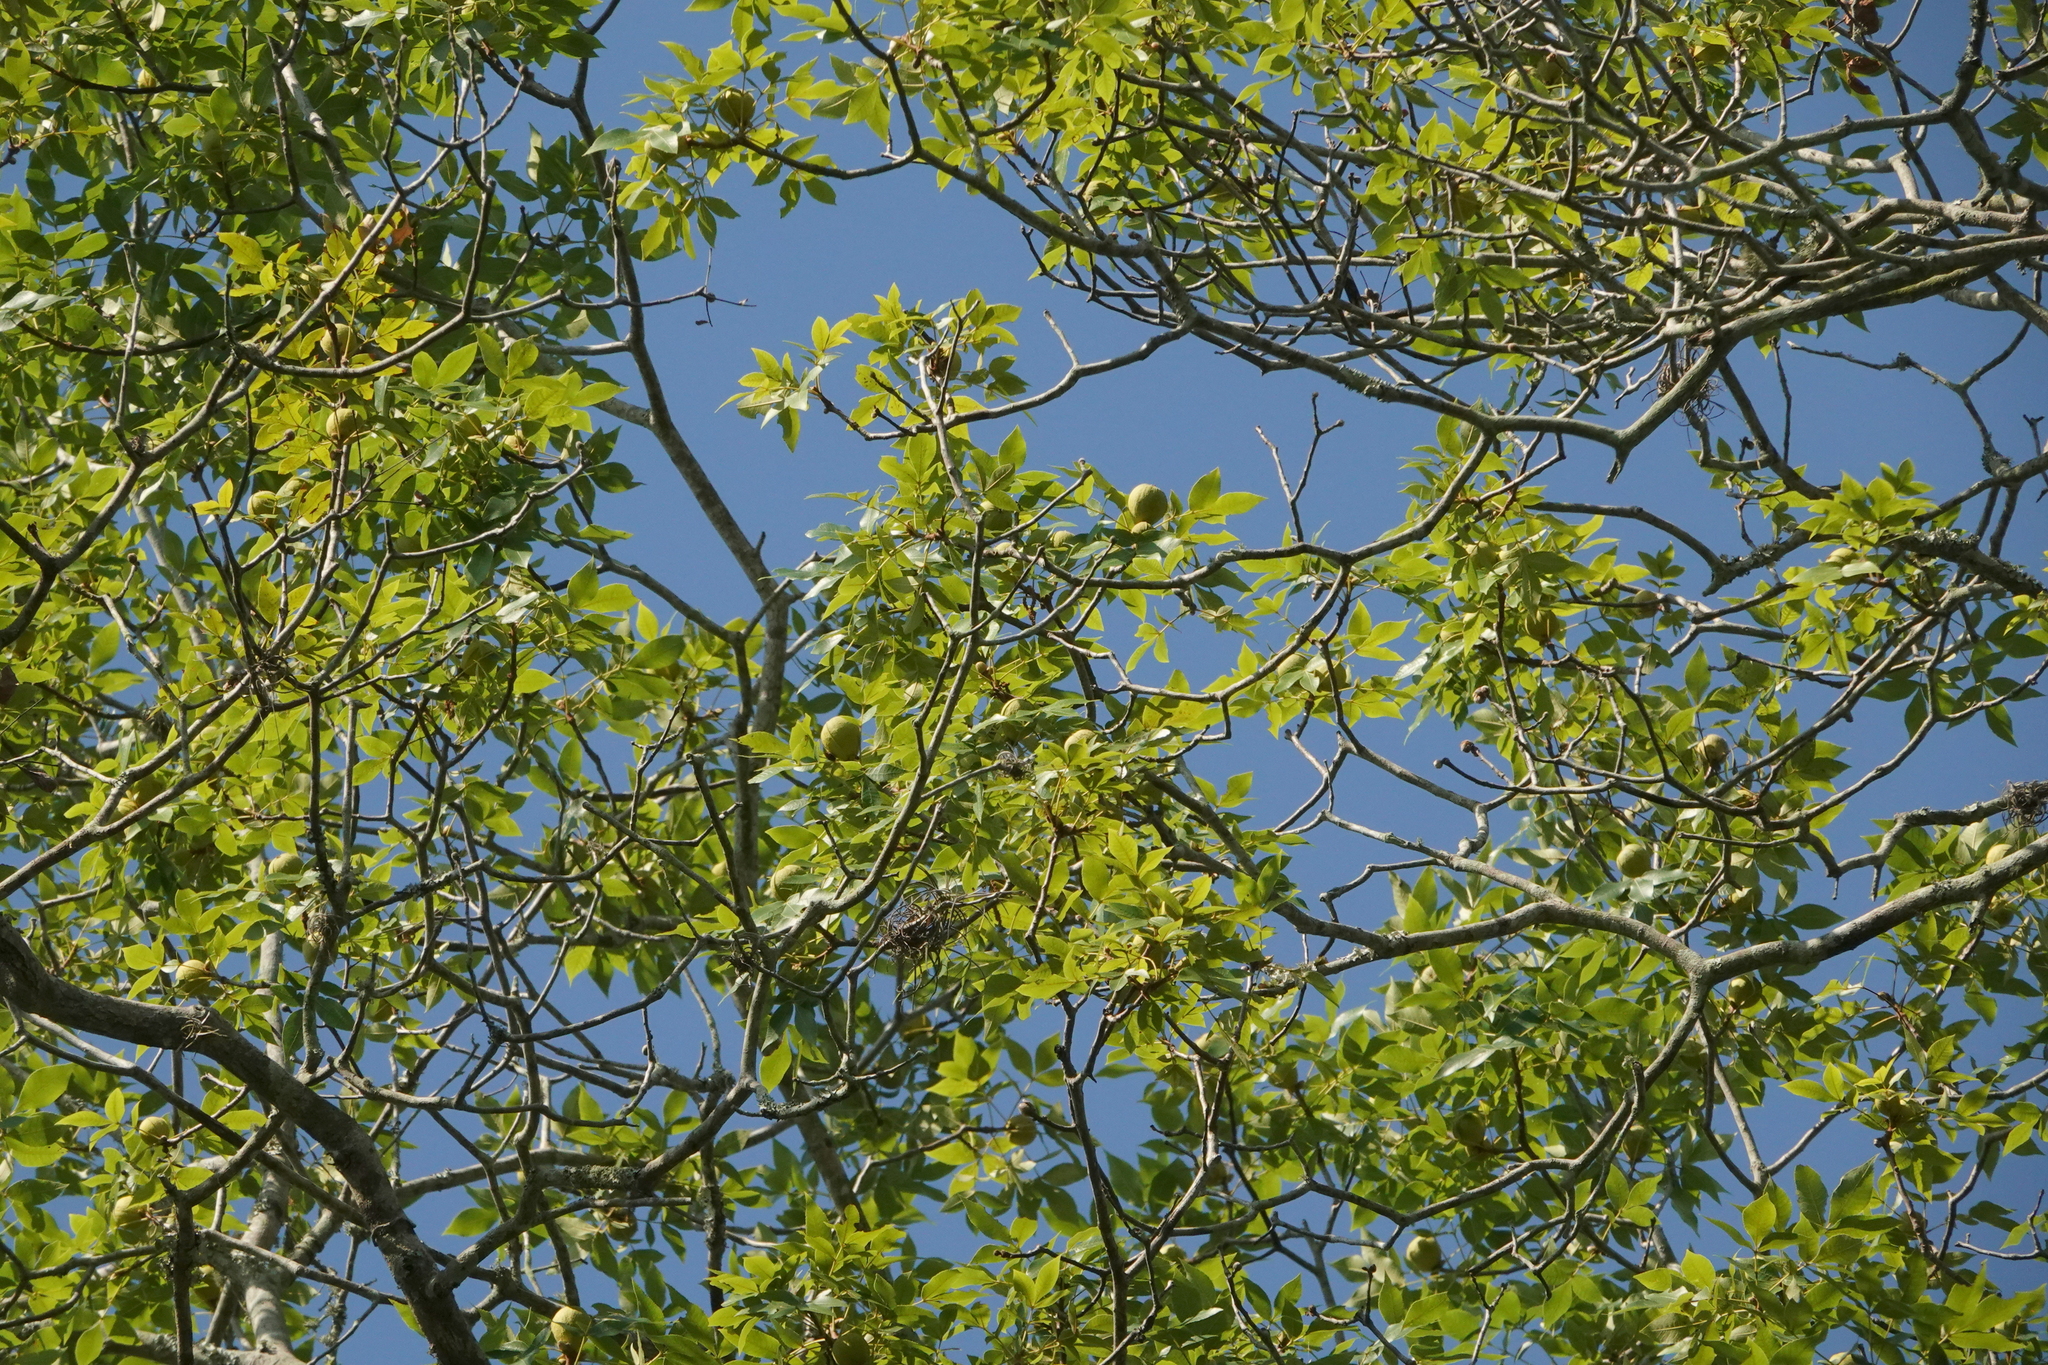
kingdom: Plantae
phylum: Tracheophyta
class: Magnoliopsida
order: Fagales
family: Juglandaceae
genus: Carya
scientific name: Carya glabra
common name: Pignut hickory
